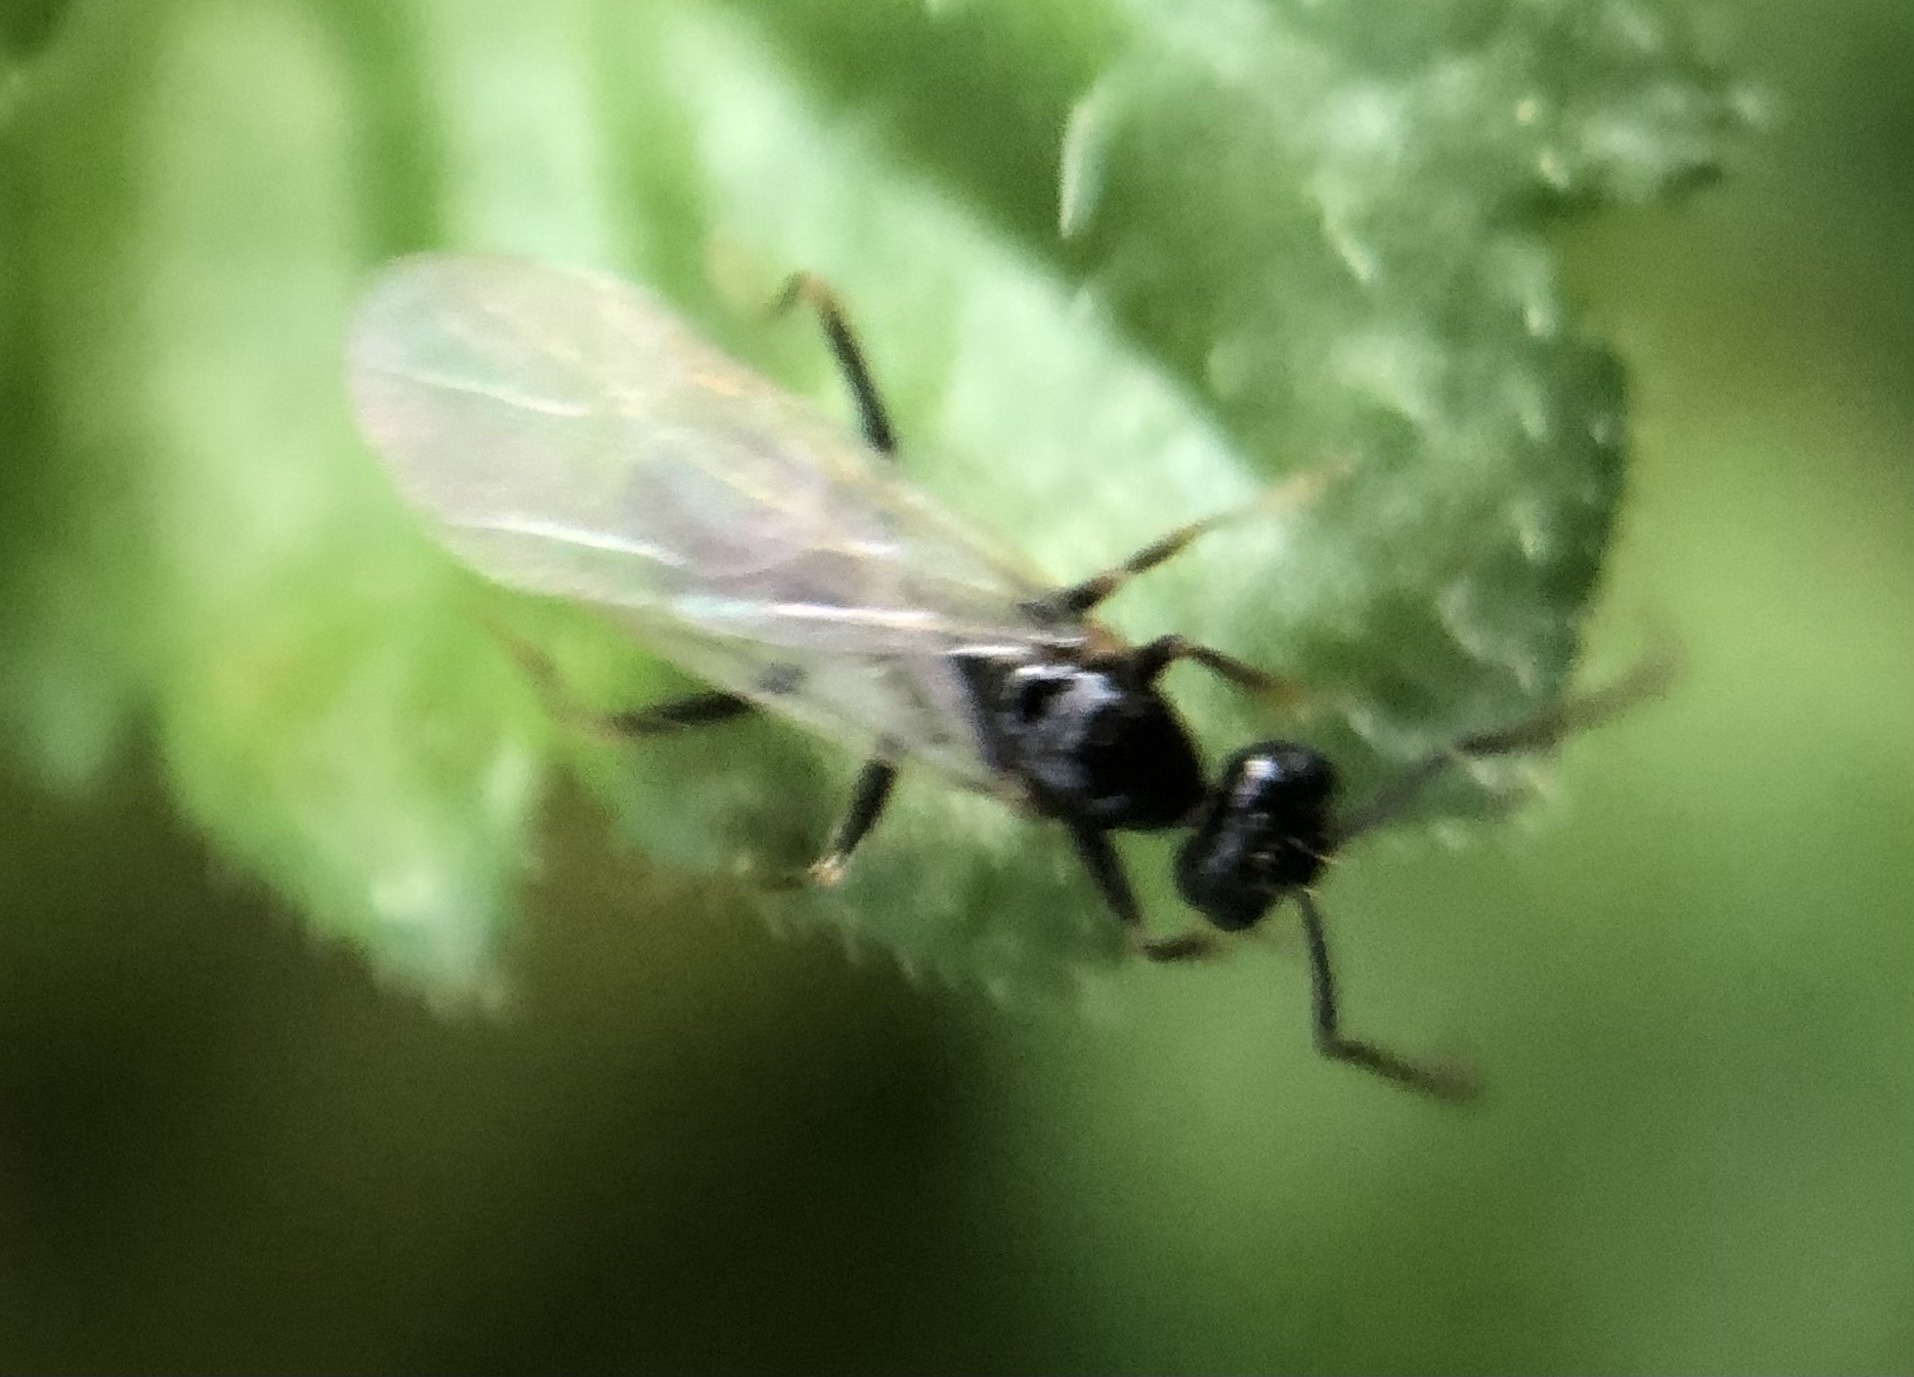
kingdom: Animalia
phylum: Arthropoda
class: Insecta
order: Hymenoptera
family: Formicidae
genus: Prenolepis
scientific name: Prenolepis imparis
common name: Small honey ant
